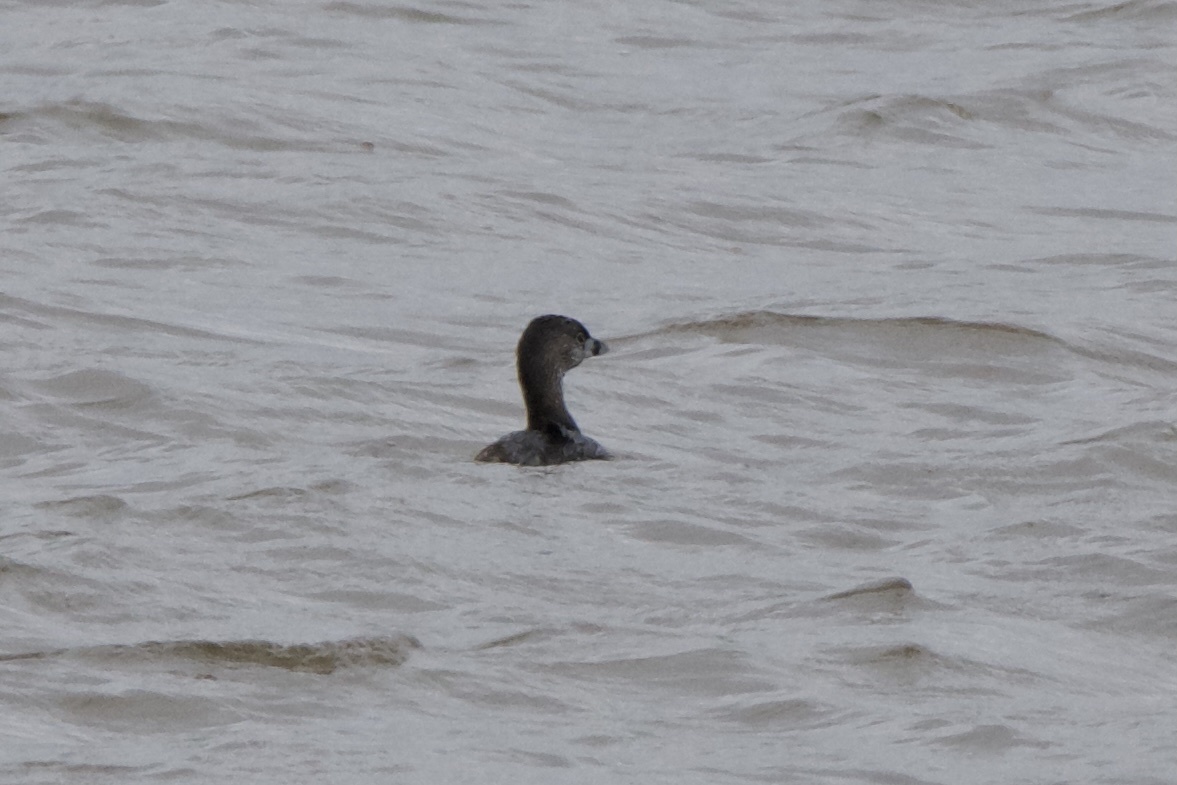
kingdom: Animalia
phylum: Chordata
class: Aves
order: Podicipediformes
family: Podicipedidae
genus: Podilymbus
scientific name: Podilymbus podiceps
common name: Pied-billed grebe
